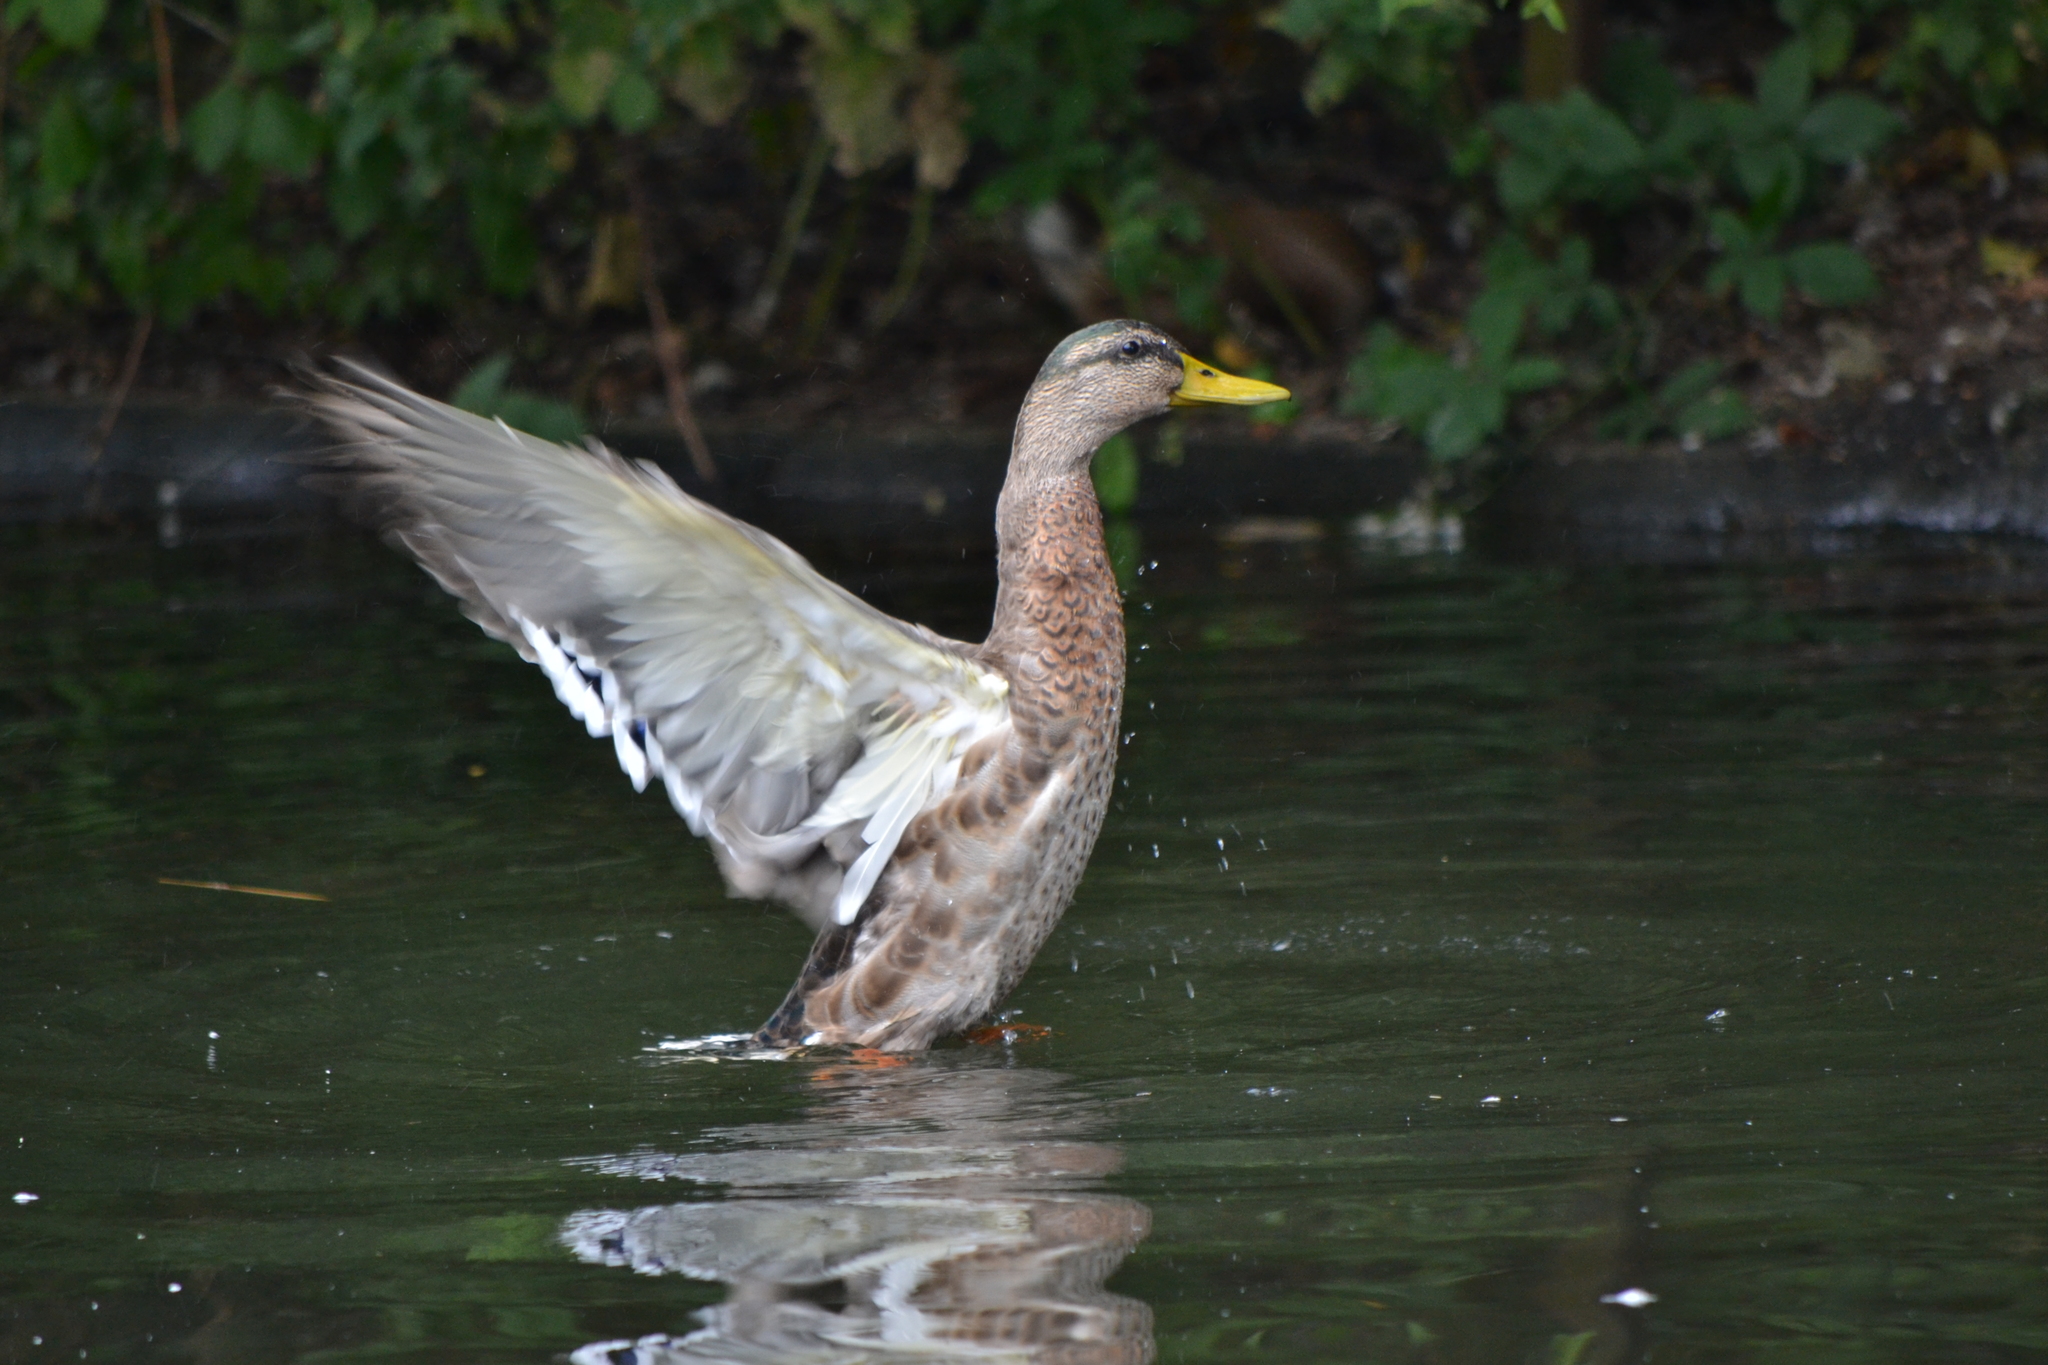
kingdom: Animalia
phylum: Chordata
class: Aves
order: Anseriformes
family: Anatidae
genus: Anas
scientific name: Anas platyrhynchos
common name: Mallard
